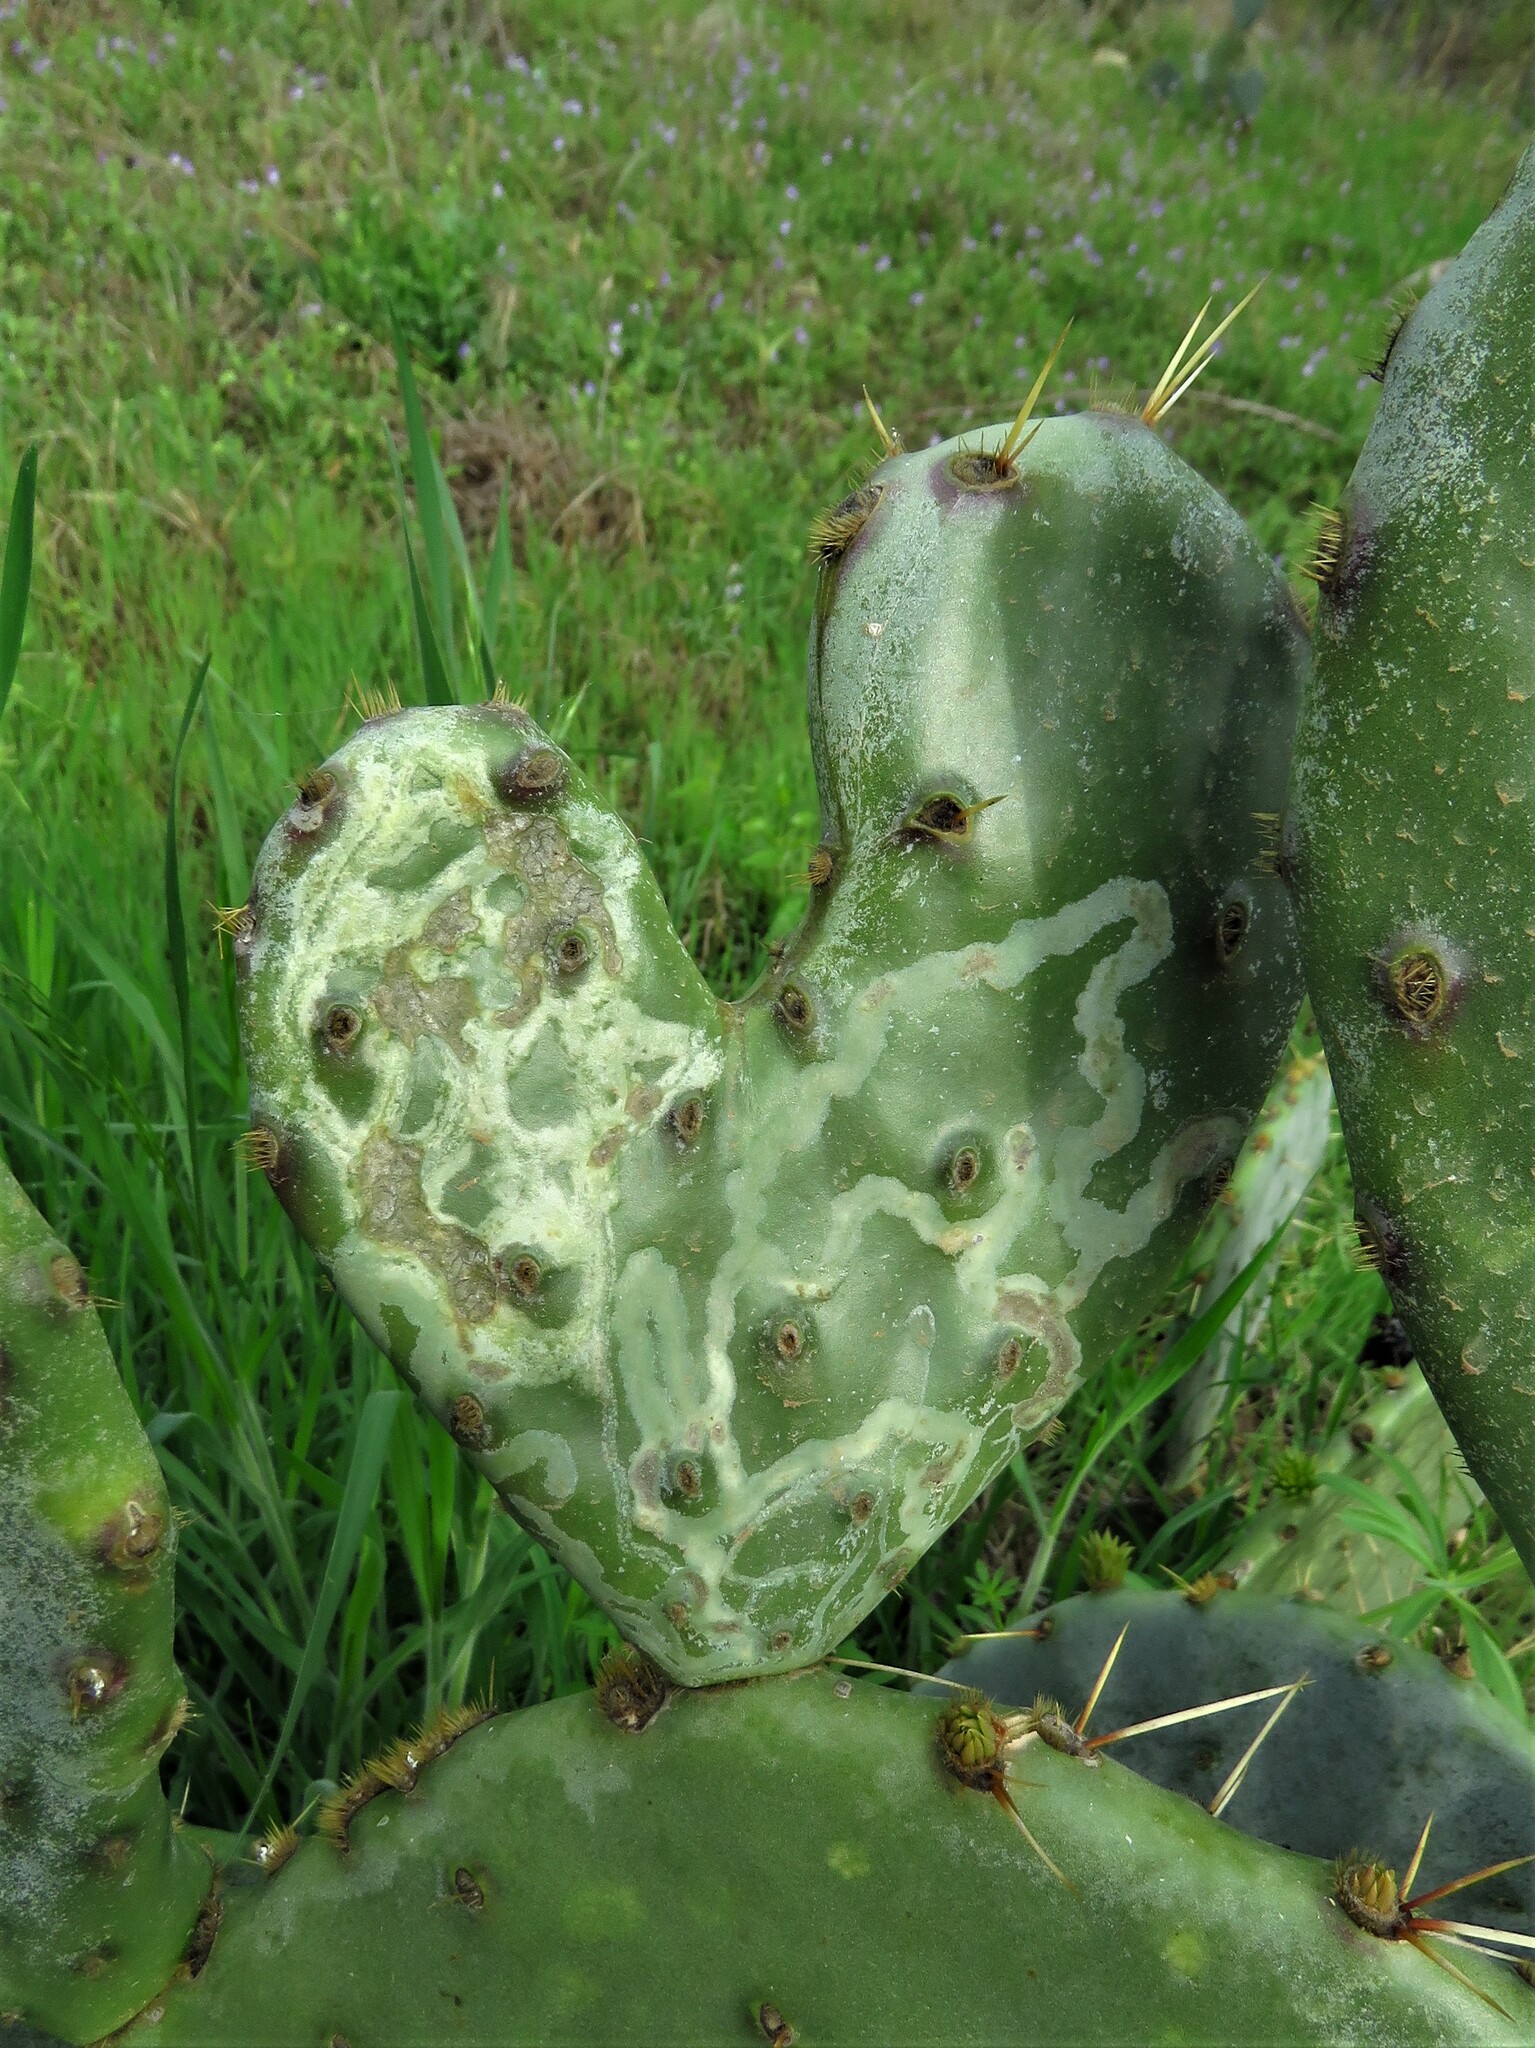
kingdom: Animalia
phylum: Arthropoda
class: Insecta
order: Lepidoptera
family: Gracillariidae
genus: Marmara
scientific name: Marmara opuntiella
